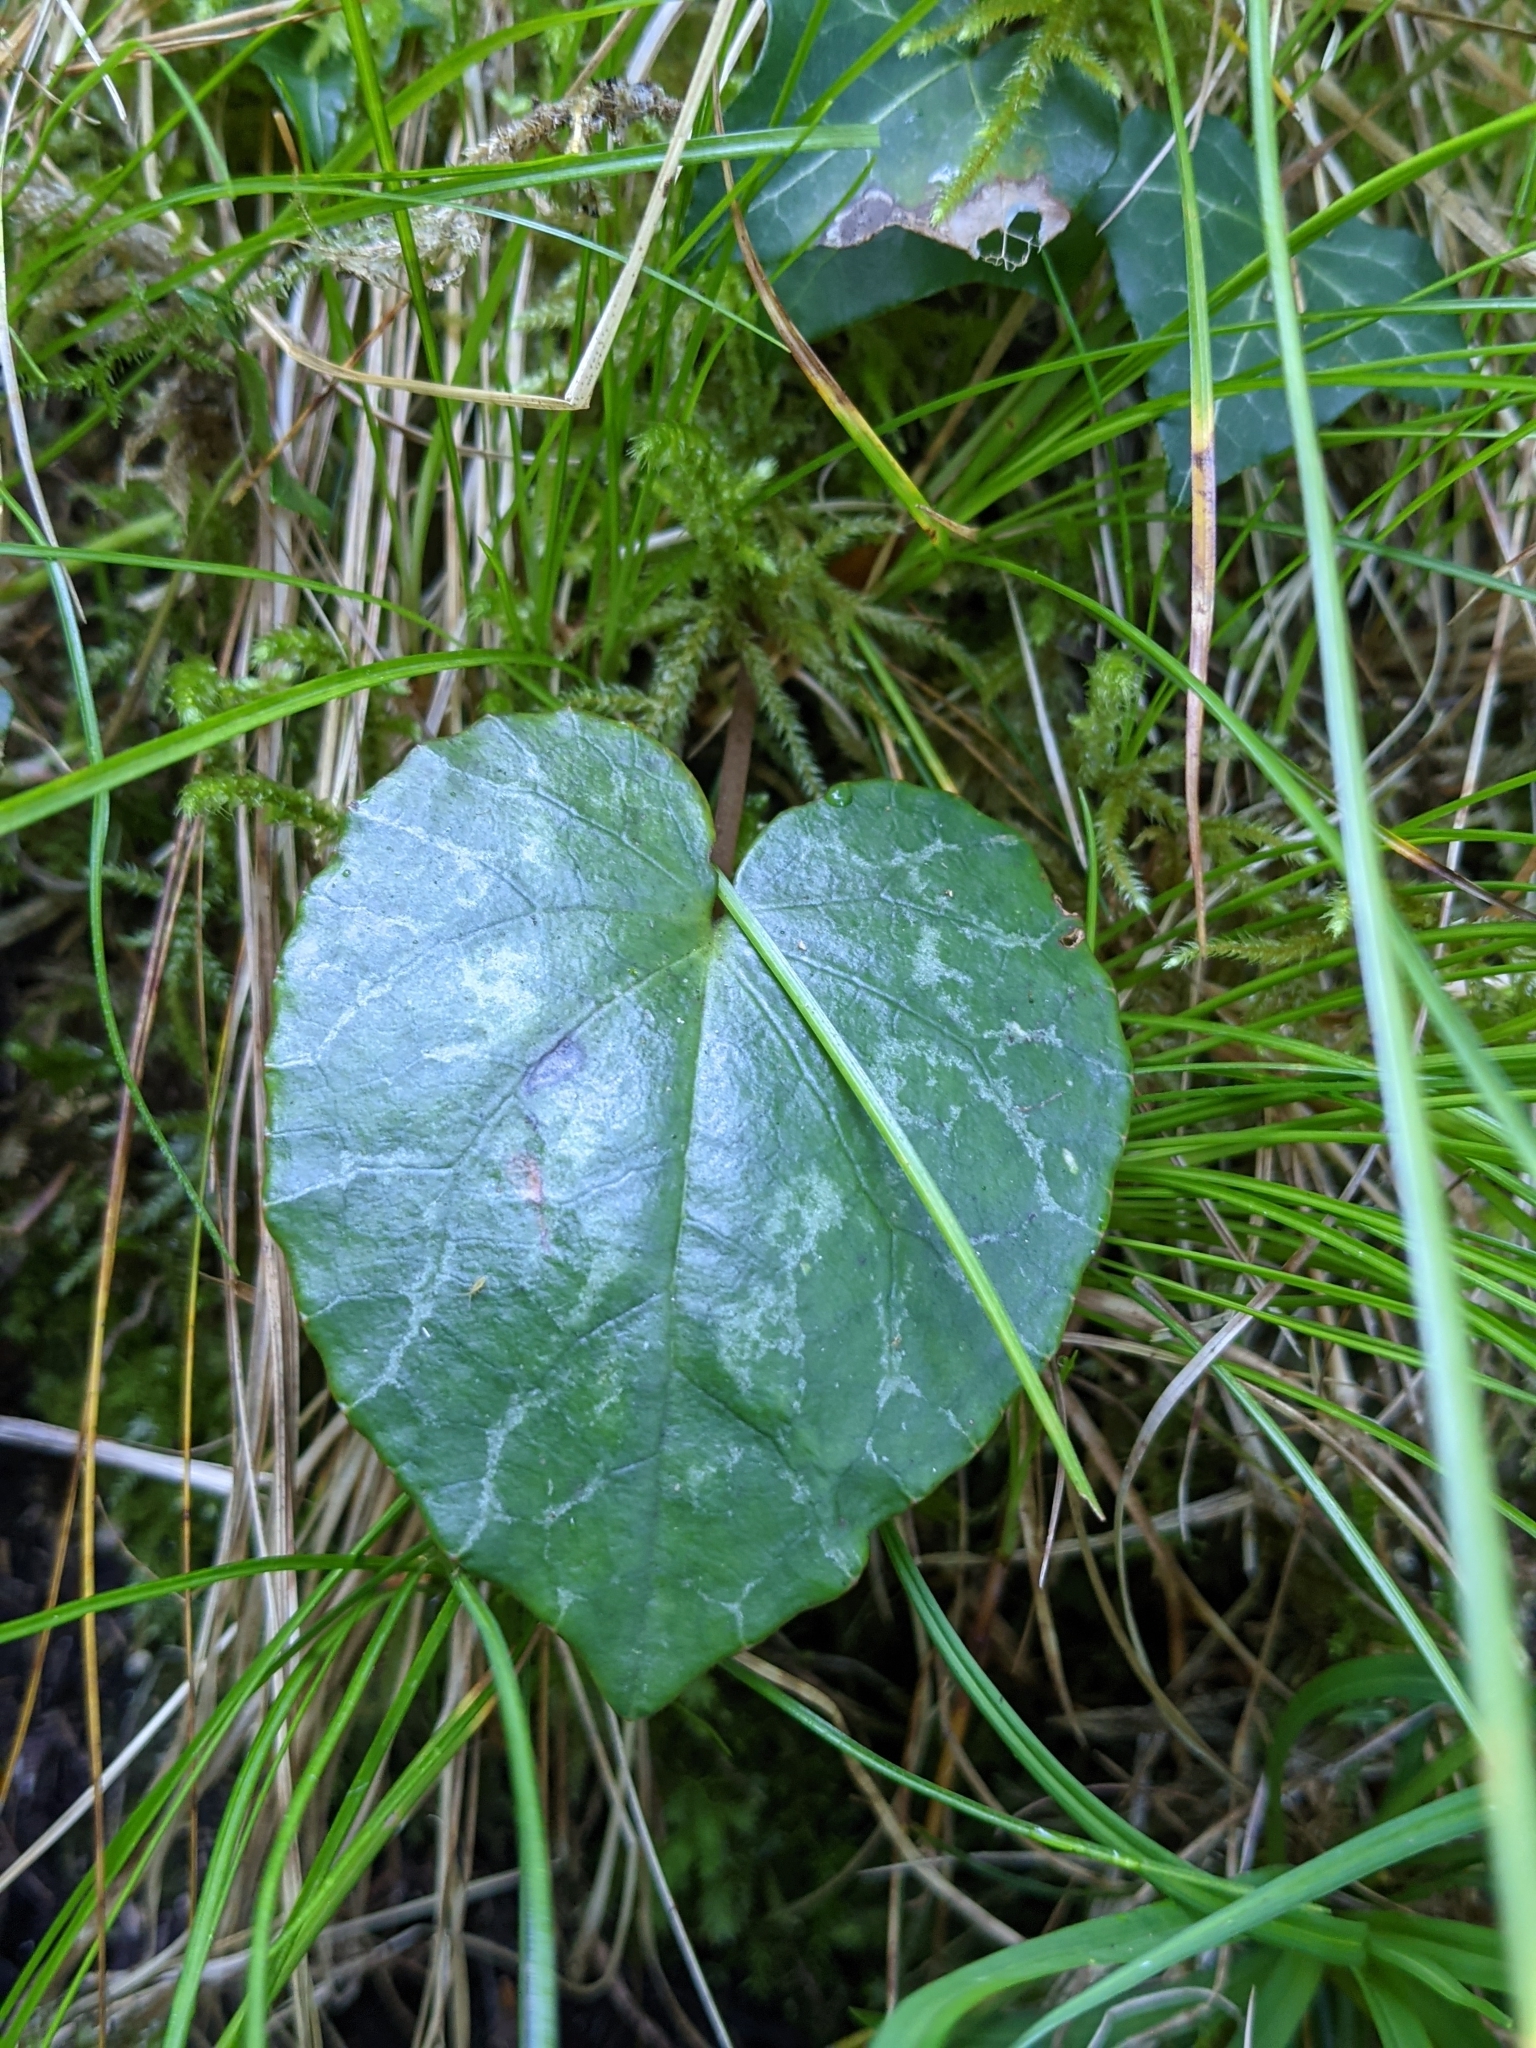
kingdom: Plantae
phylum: Tracheophyta
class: Magnoliopsida
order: Ericales
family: Primulaceae
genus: Cyclamen
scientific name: Cyclamen purpurascens
